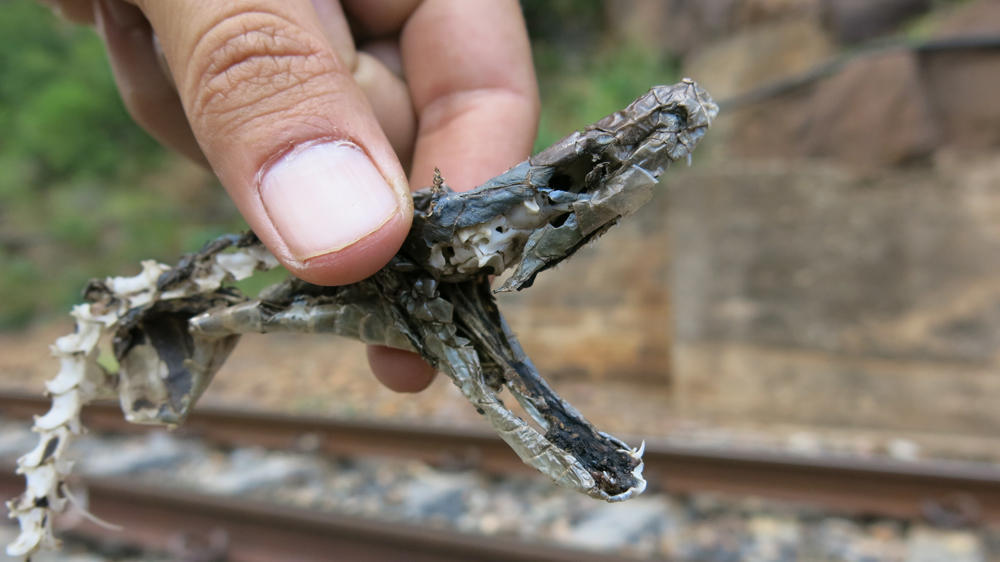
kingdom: Animalia
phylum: Chordata
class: Squamata
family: Elapidae
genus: Dendroaspis
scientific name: Dendroaspis polylepis
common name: Black mamba
